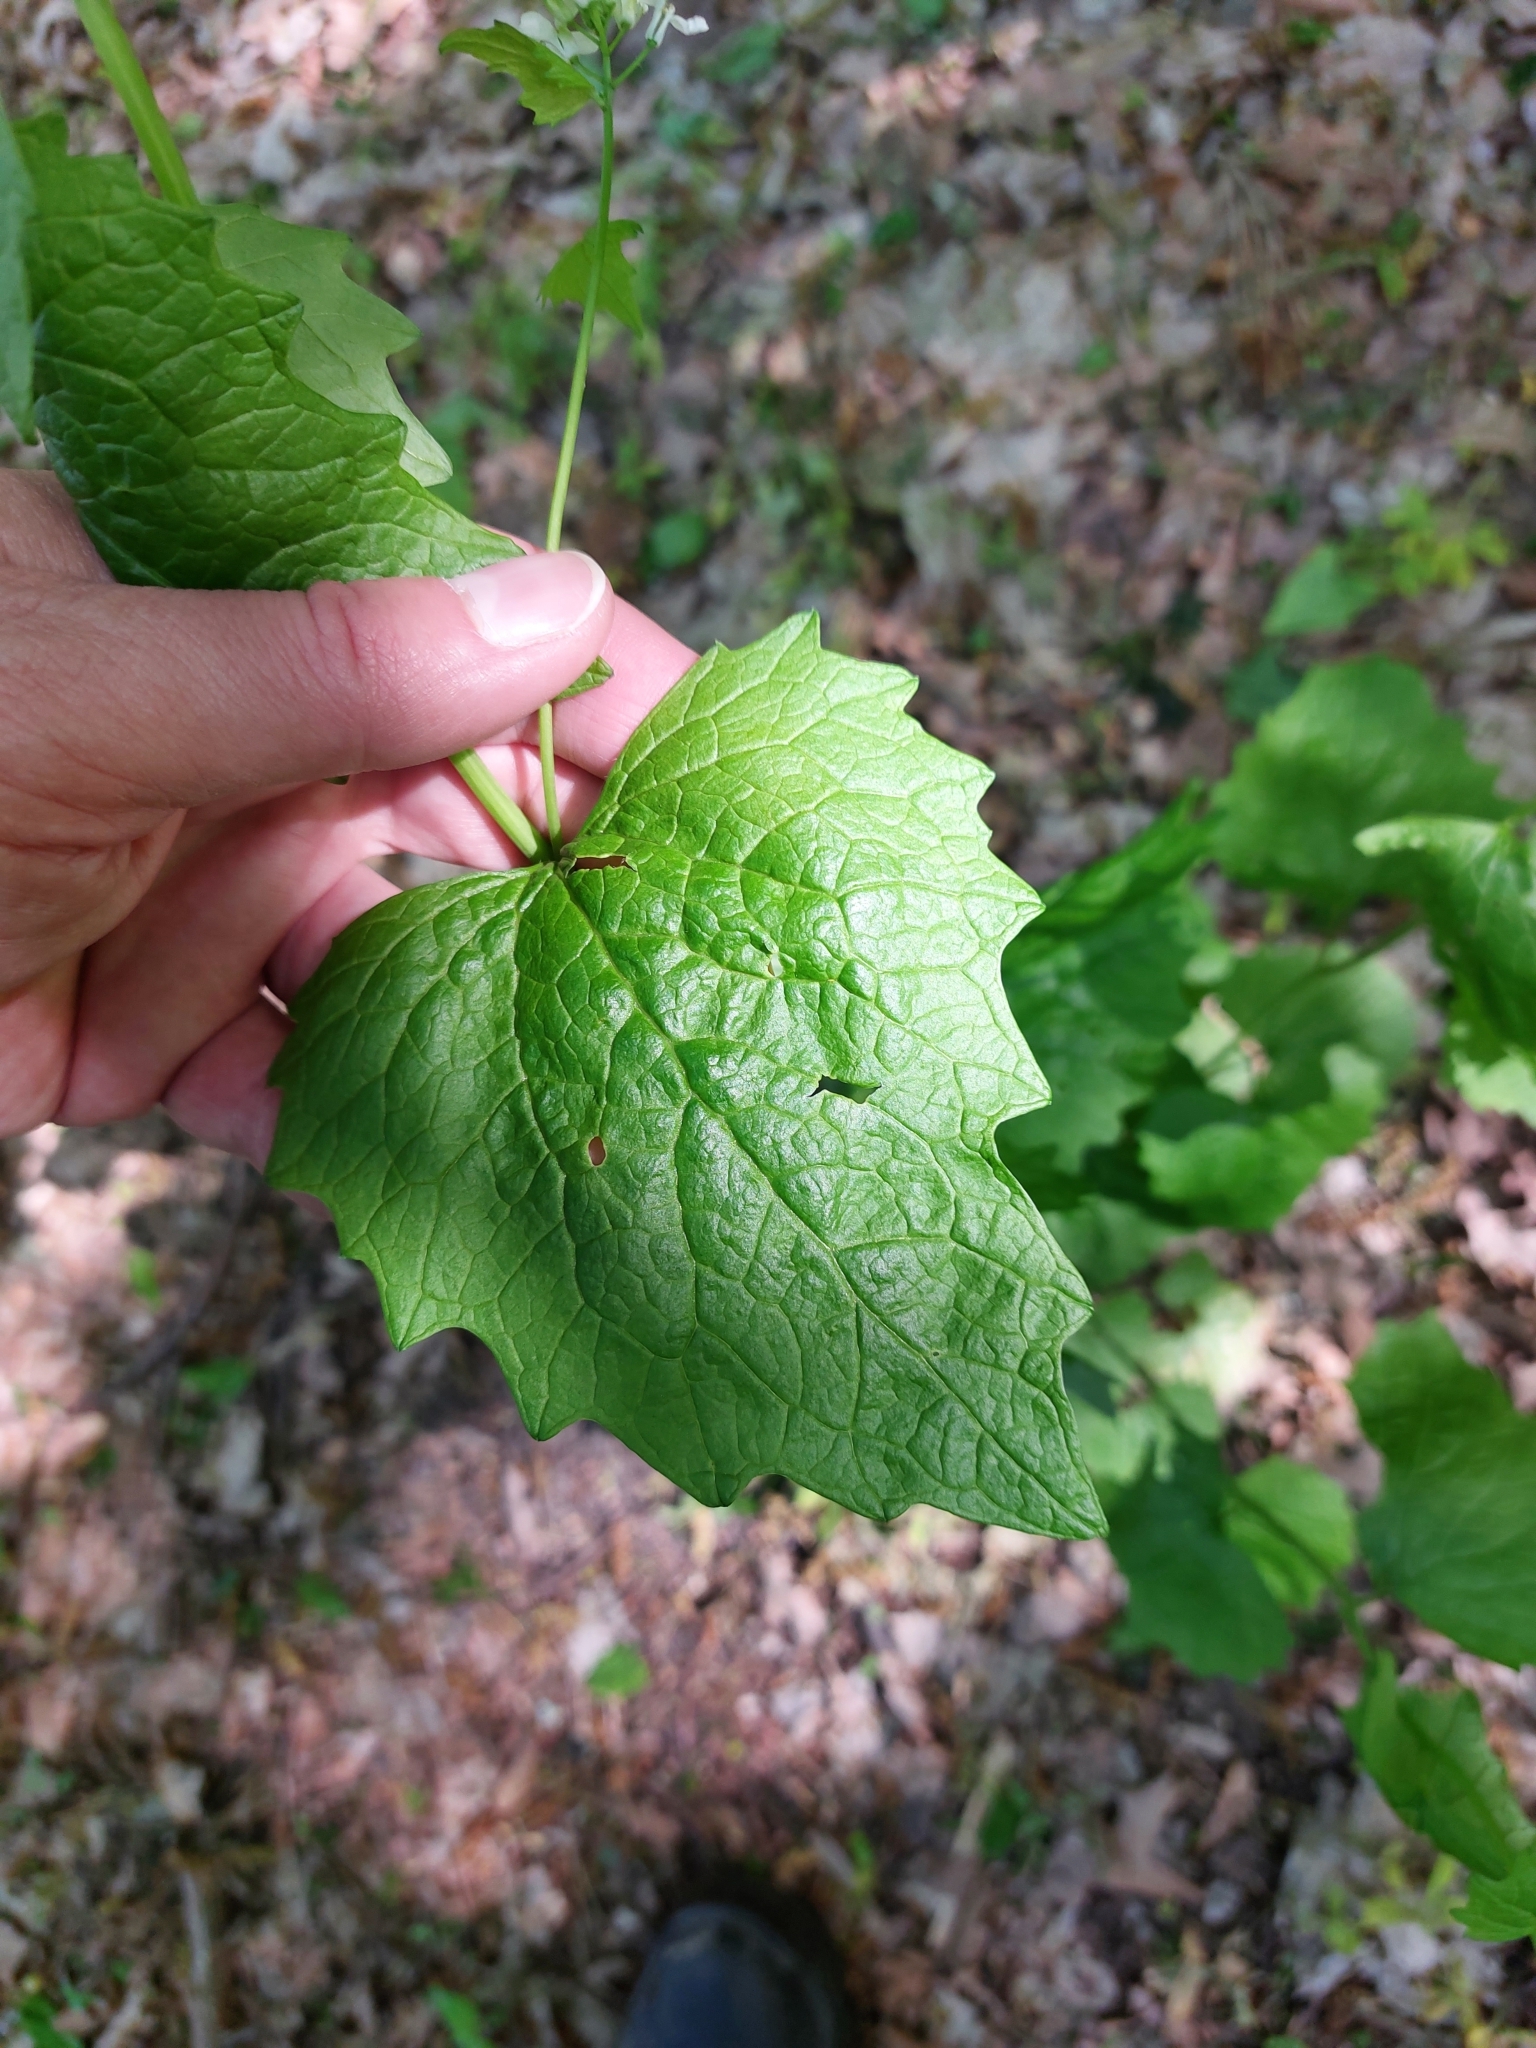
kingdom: Plantae
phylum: Tracheophyta
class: Magnoliopsida
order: Brassicales
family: Brassicaceae
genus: Alliaria
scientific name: Alliaria petiolata
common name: Garlic mustard
